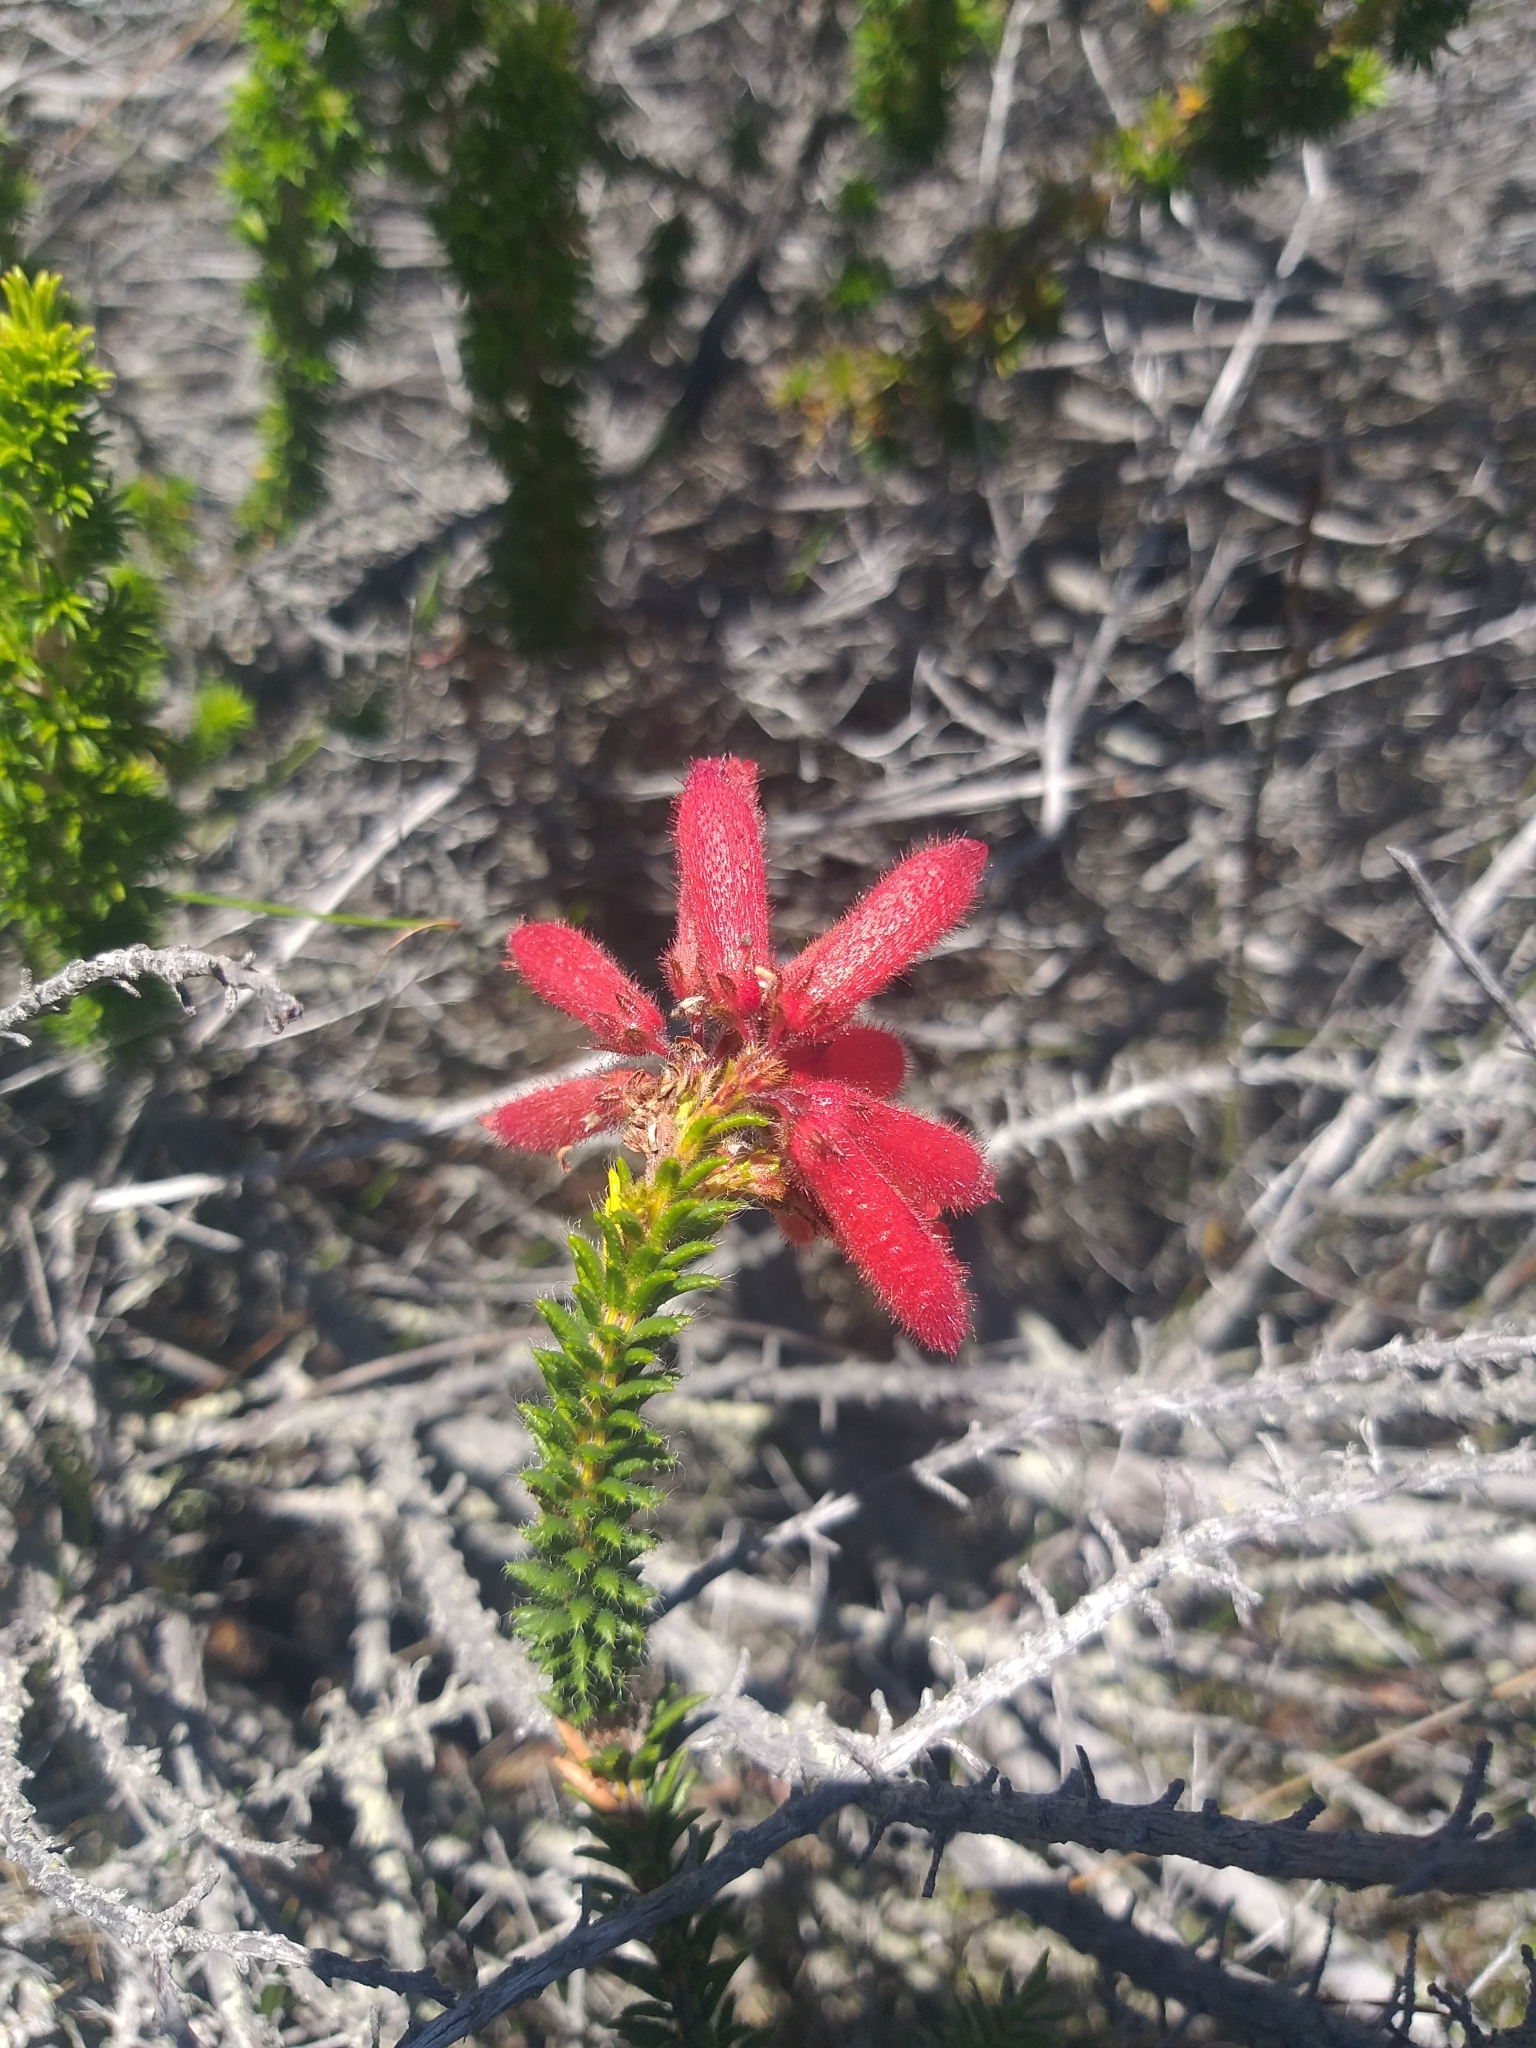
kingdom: Plantae
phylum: Tracheophyta
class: Magnoliopsida
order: Ericales
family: Ericaceae
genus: Erica
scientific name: Erica cerinthoides
